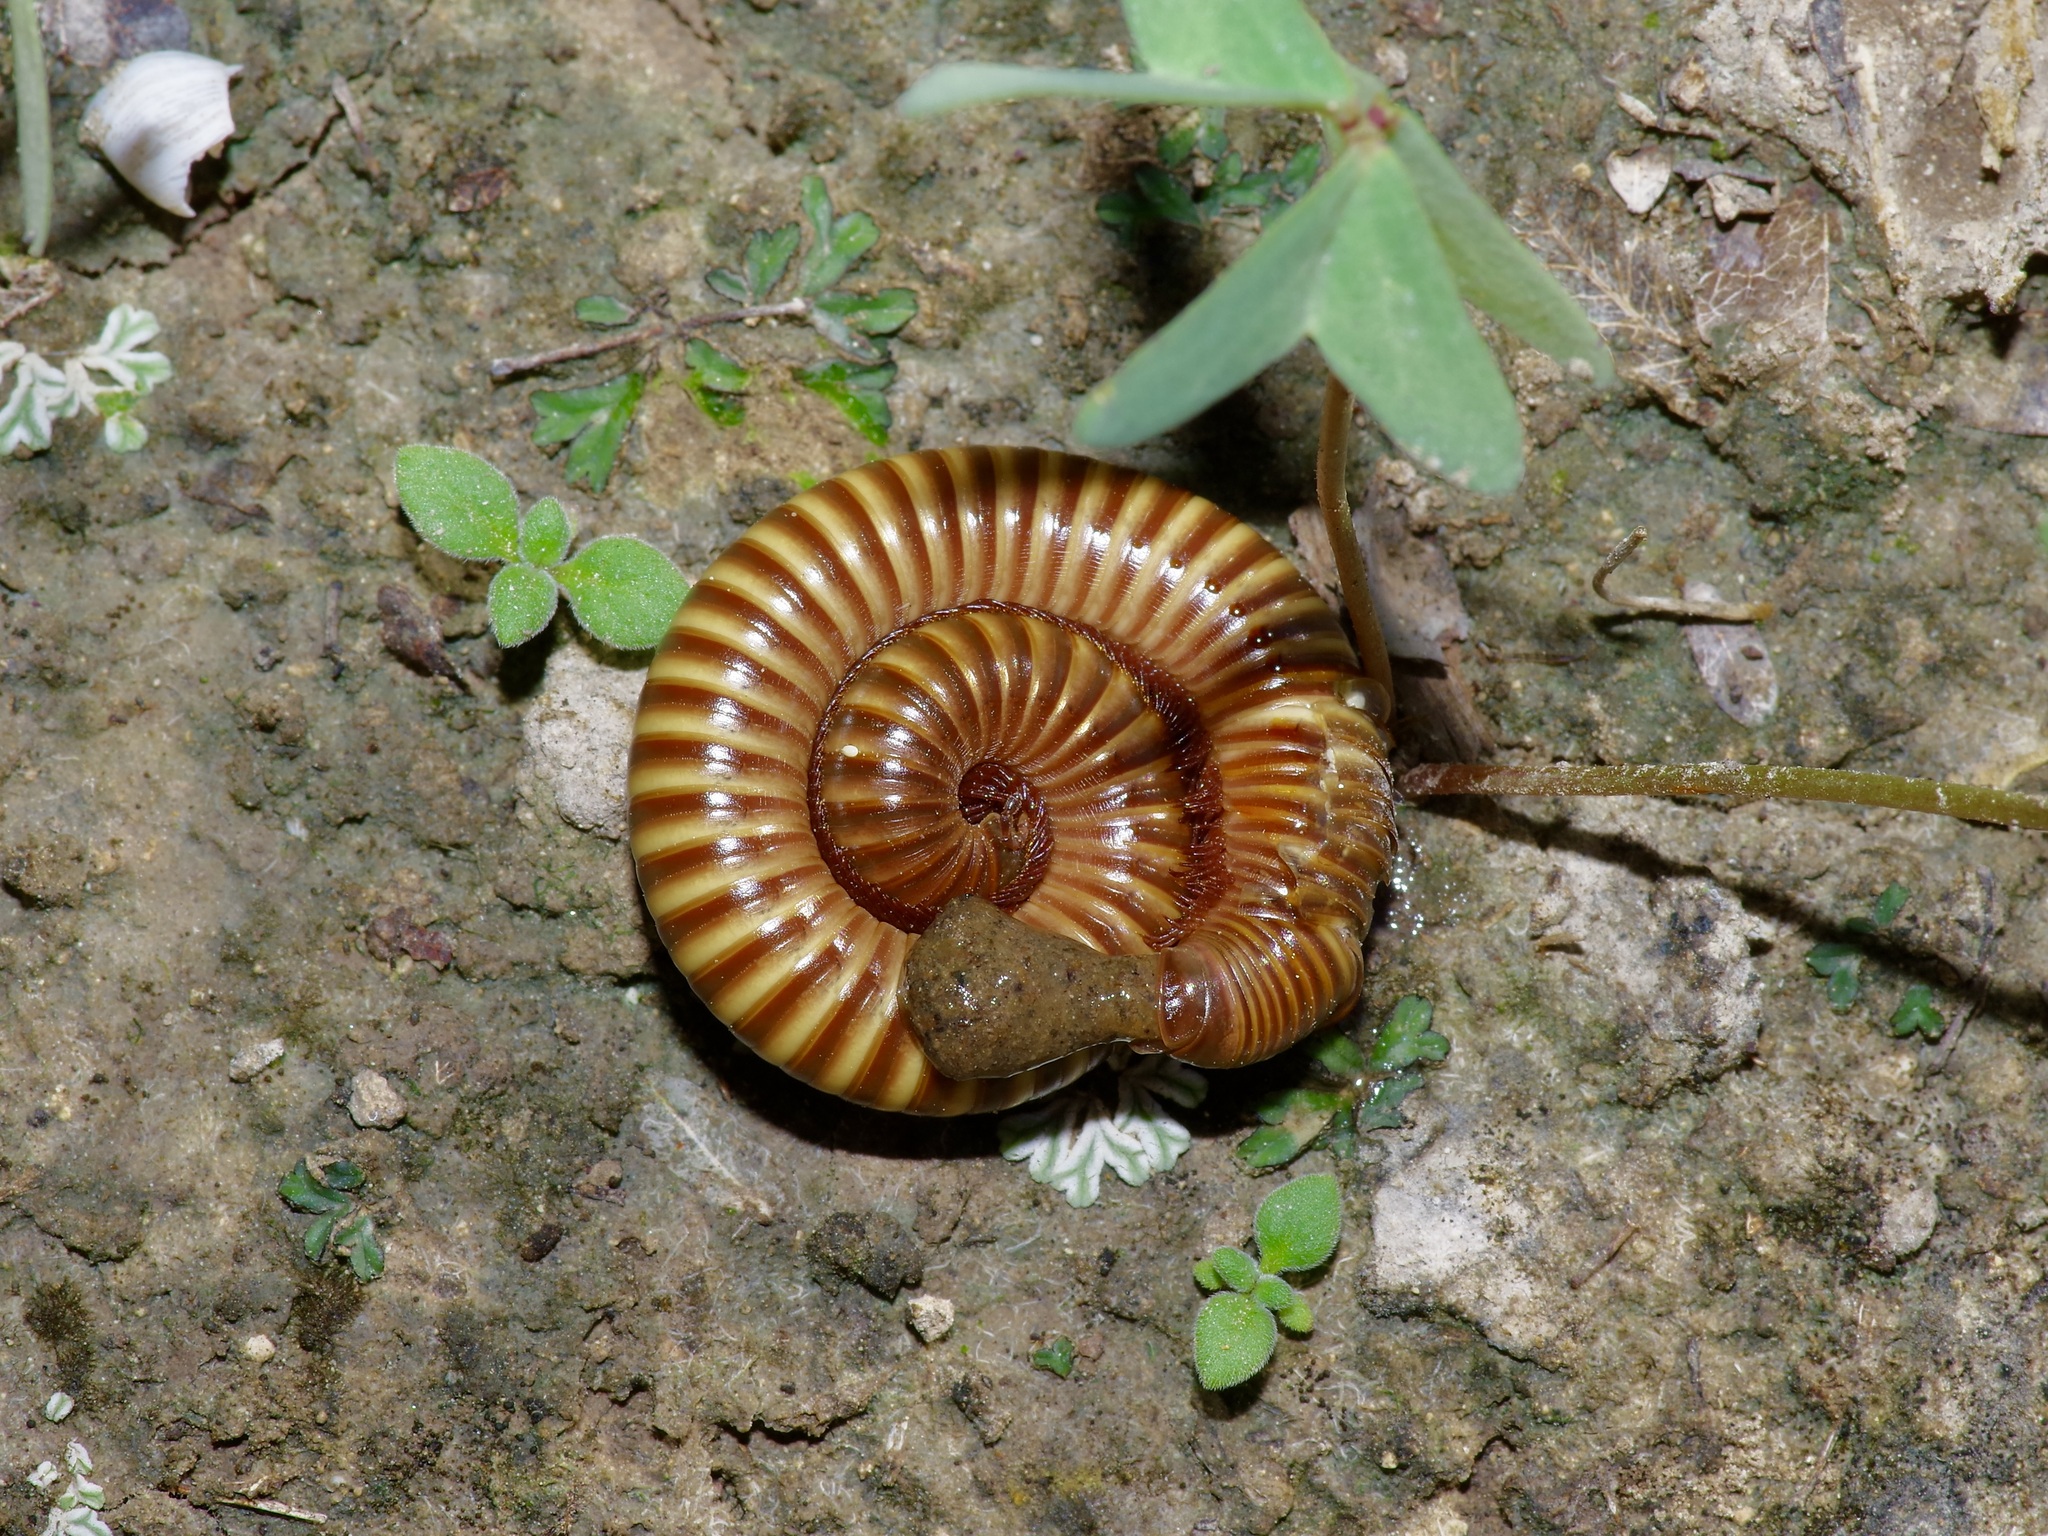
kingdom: Animalia
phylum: Arthropoda
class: Diplopoda
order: Spirostreptida
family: Spirostreptidae
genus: Orthoporus
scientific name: Orthoporus ornatus
